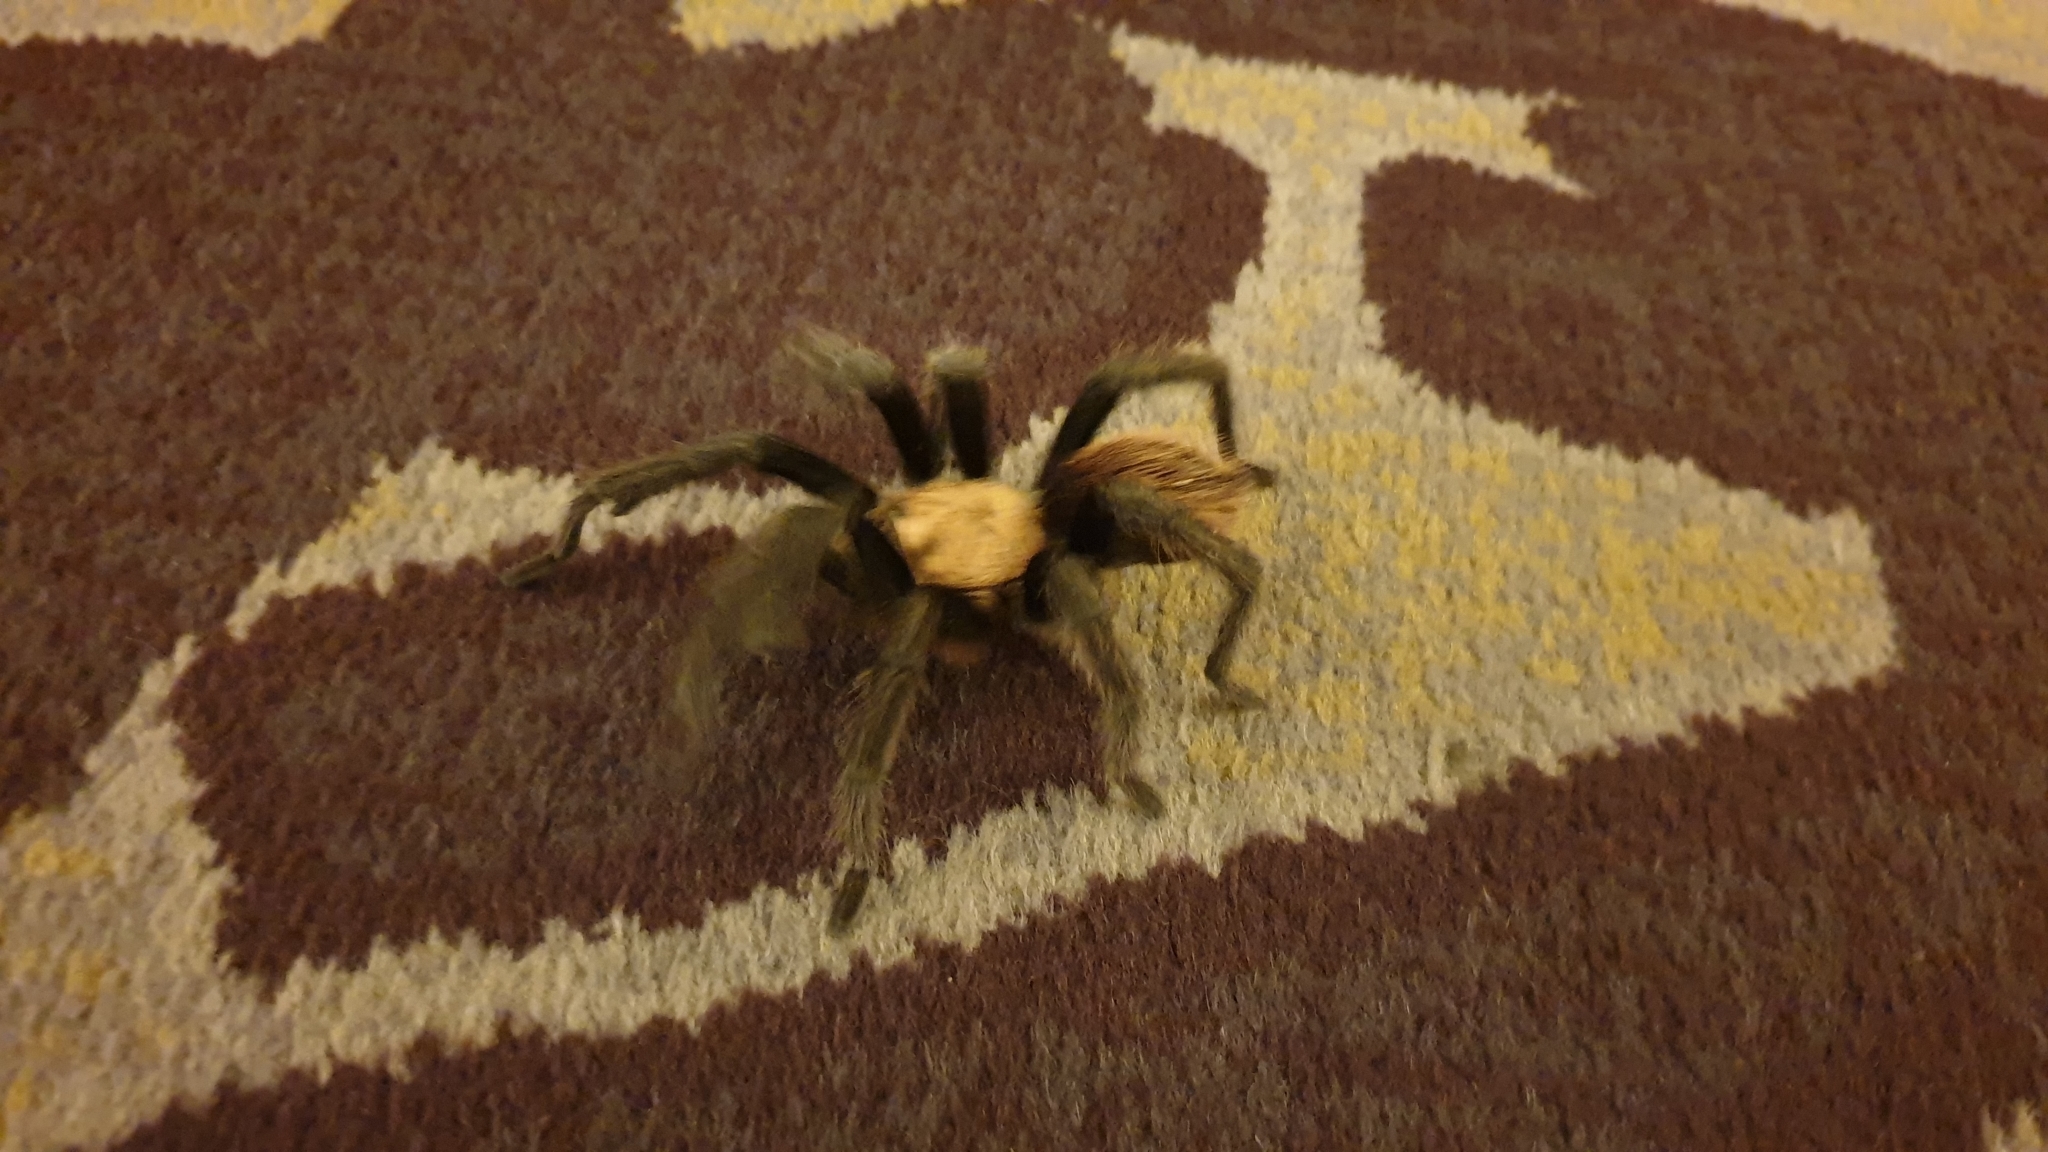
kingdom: Animalia
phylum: Arthropoda
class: Arachnida
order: Araneae
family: Theraphosidae
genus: Aphonopelma
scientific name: Aphonopelma chalcodes
